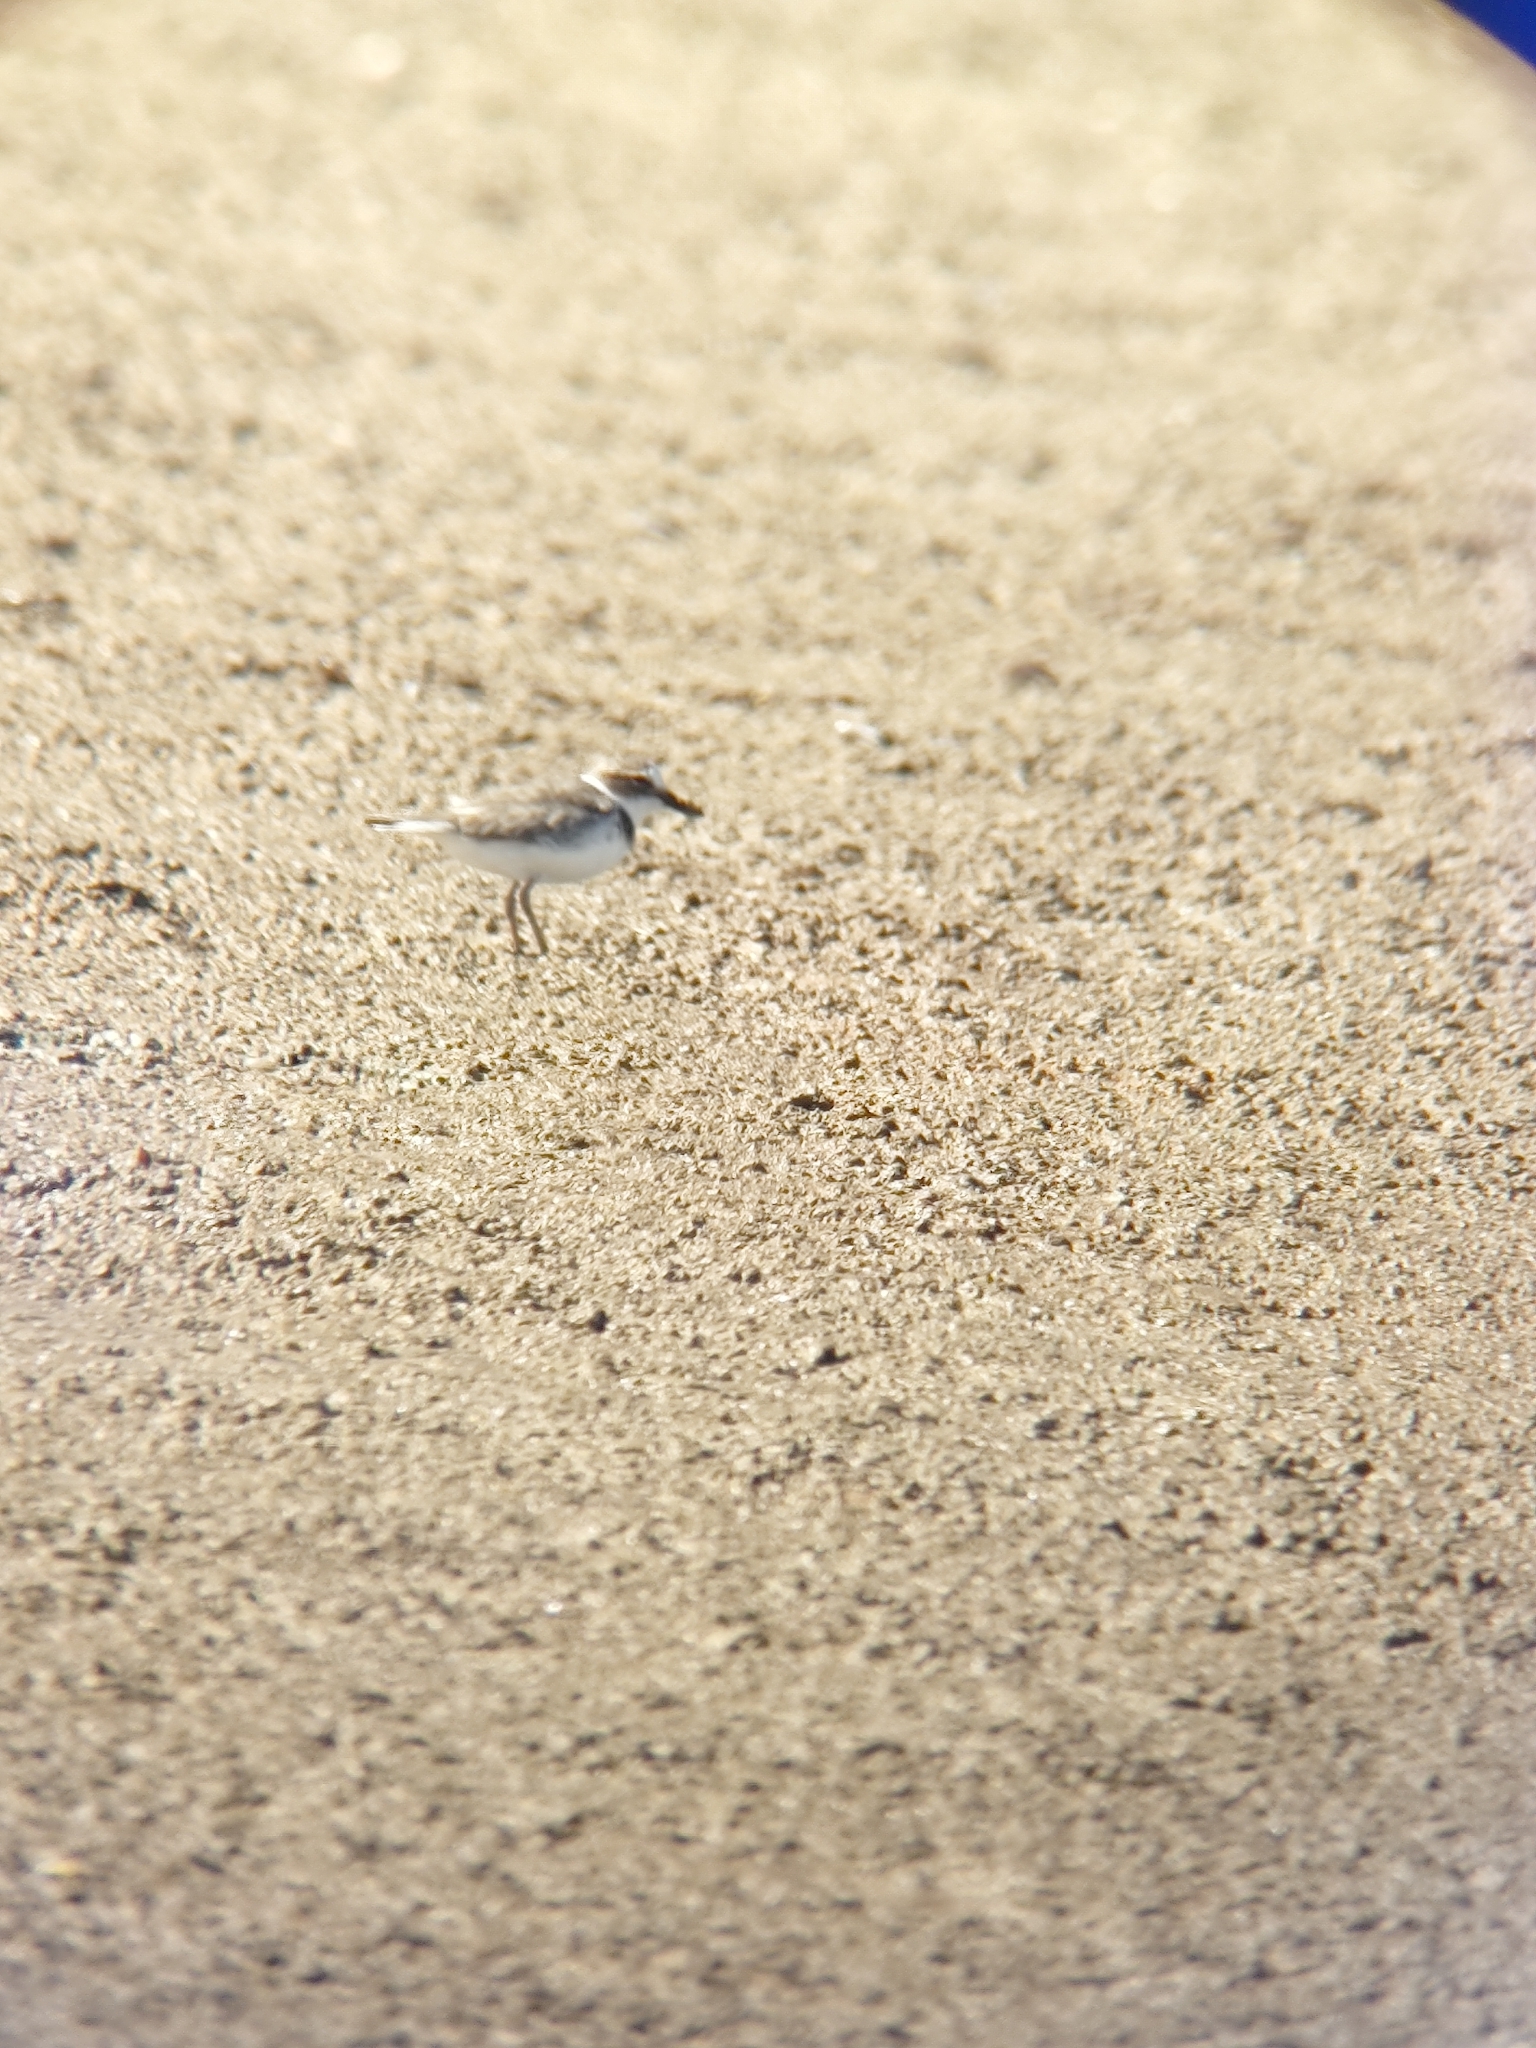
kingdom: Animalia
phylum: Chordata
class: Aves
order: Charadriiformes
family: Charadriidae
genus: Anarhynchus
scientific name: Anarhynchus
